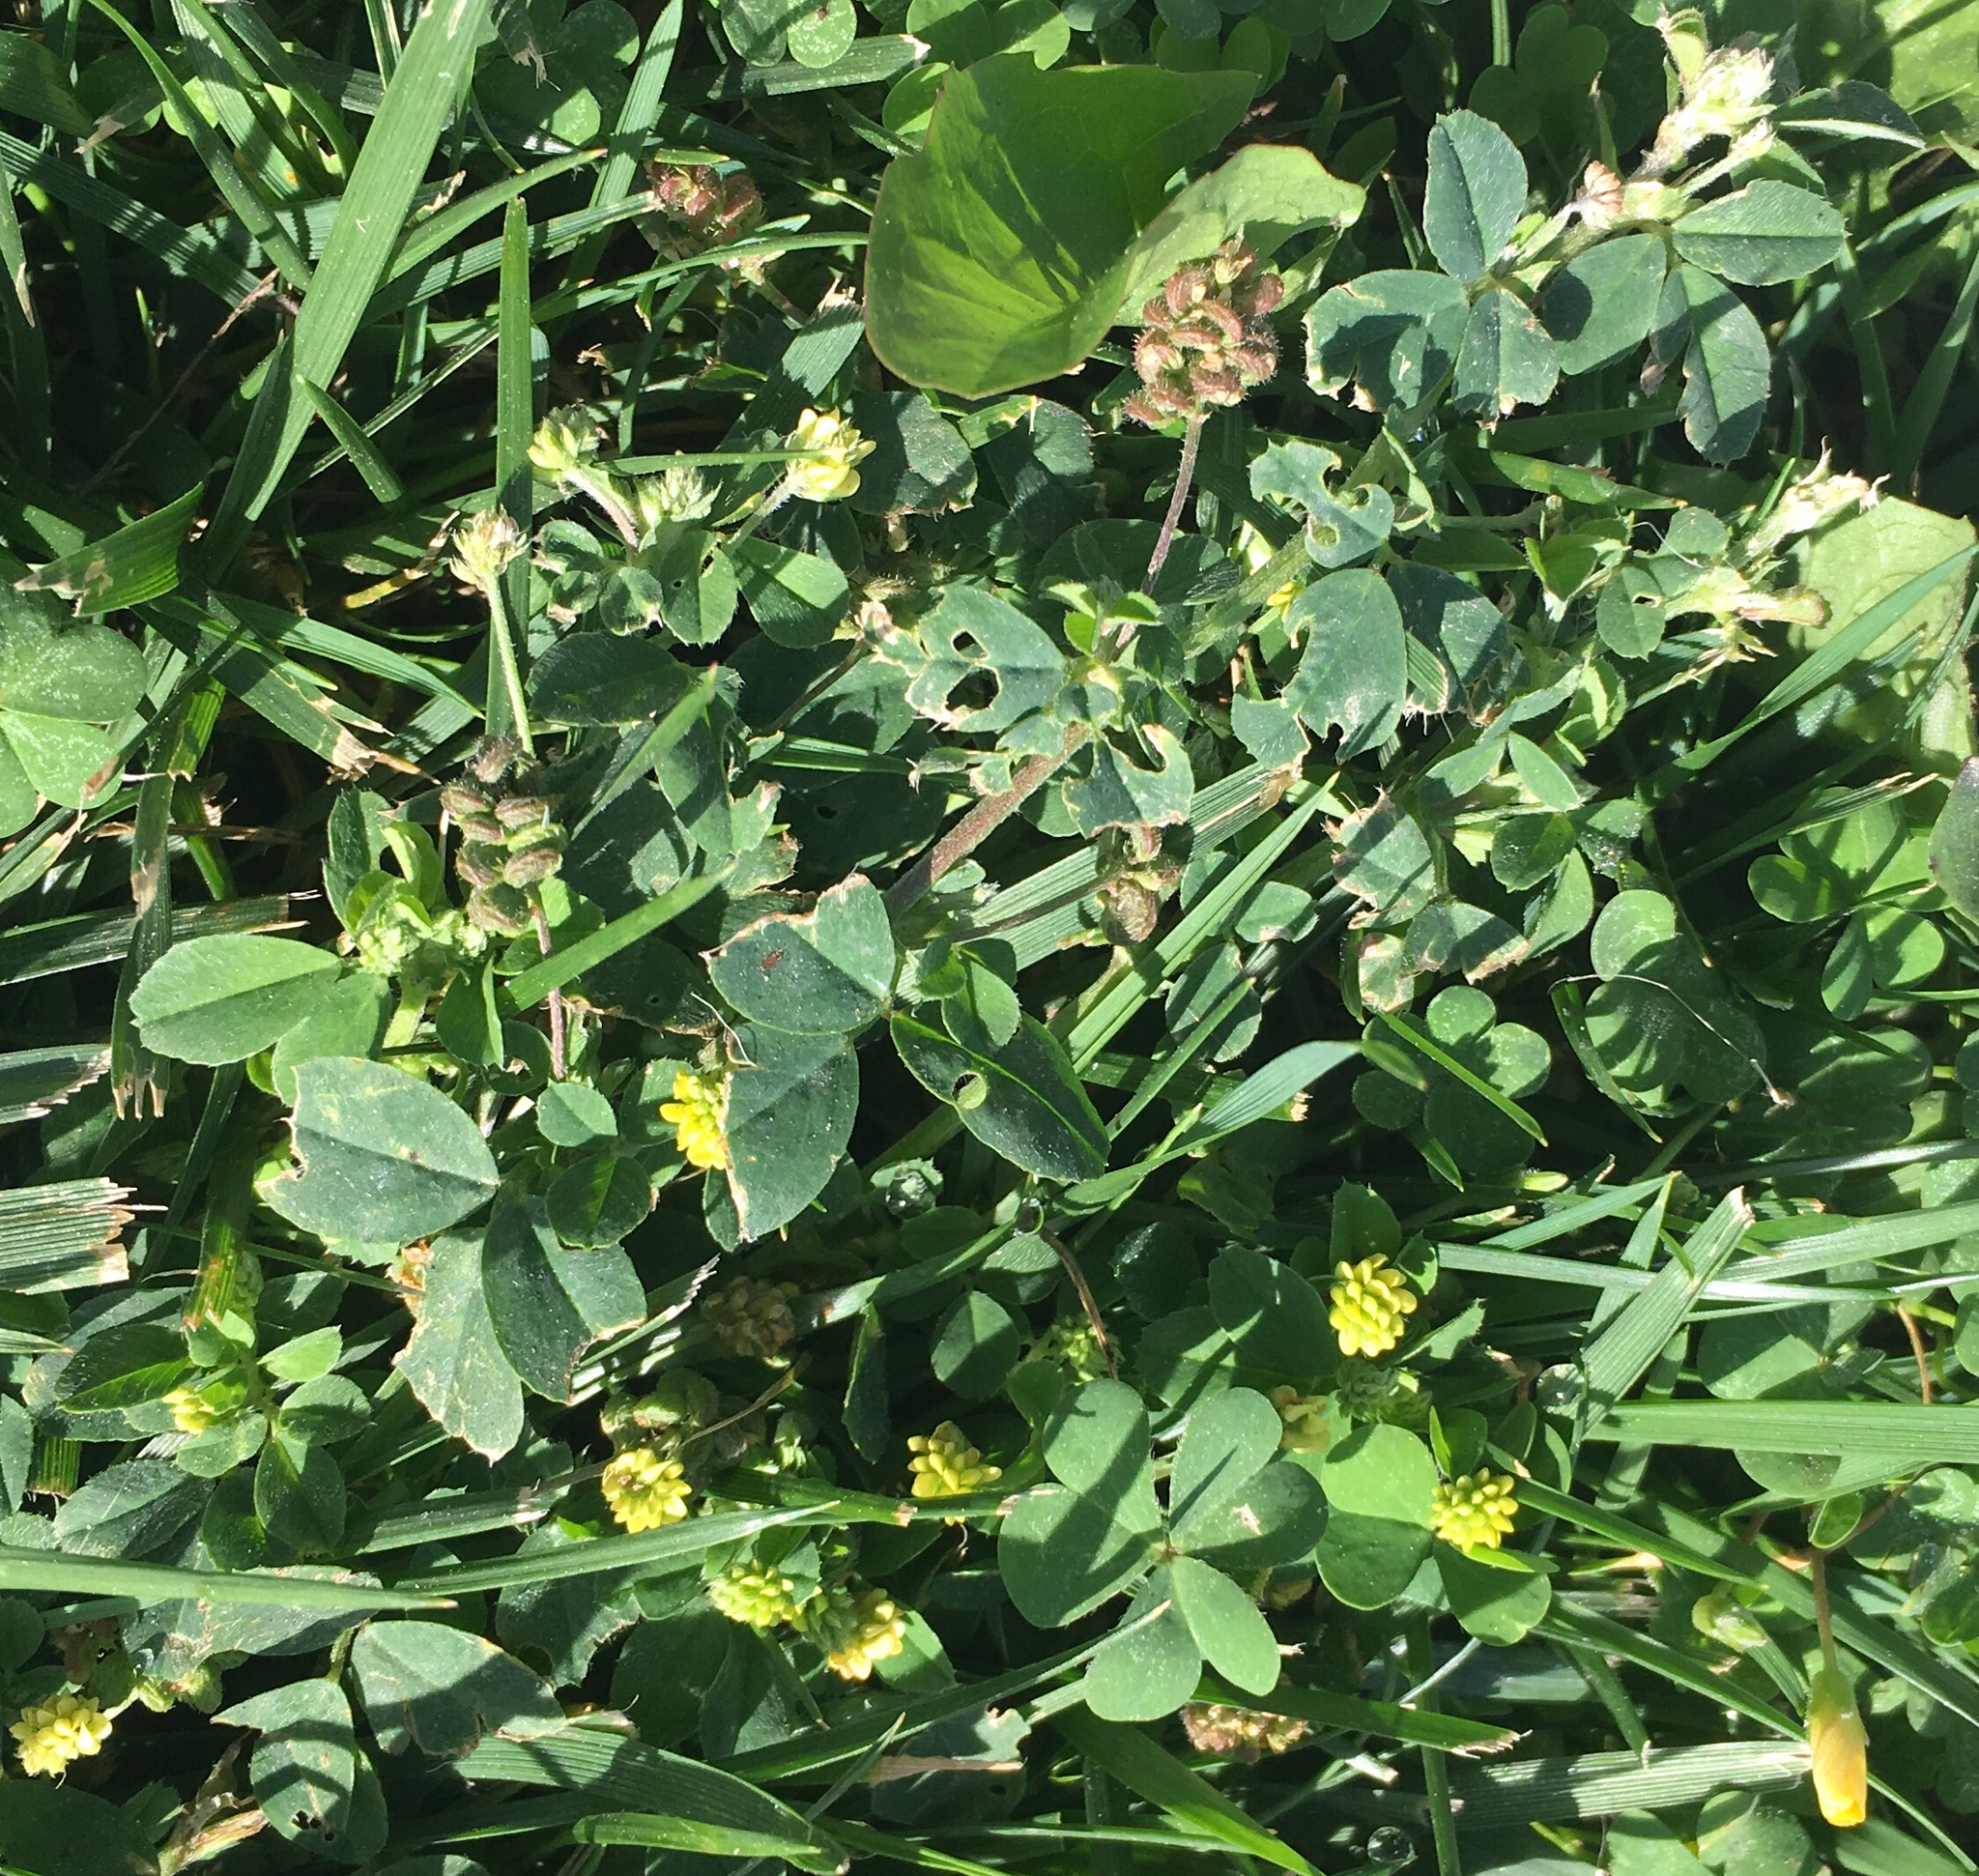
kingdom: Plantae
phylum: Tracheophyta
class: Magnoliopsida
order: Fabales
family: Fabaceae
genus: Medicago
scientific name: Medicago lupulina
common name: Black medick
